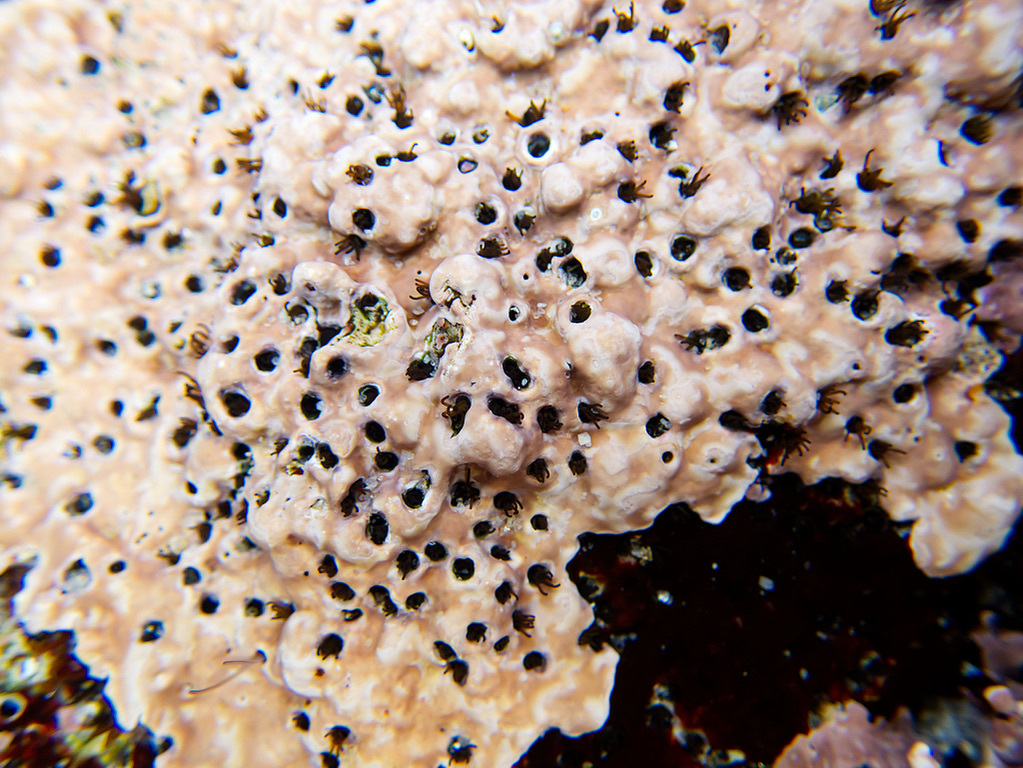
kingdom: Animalia
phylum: Annelida
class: Polychaeta
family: Cirratulidae
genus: Dodecaceria
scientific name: Dodecaceria pacifica
